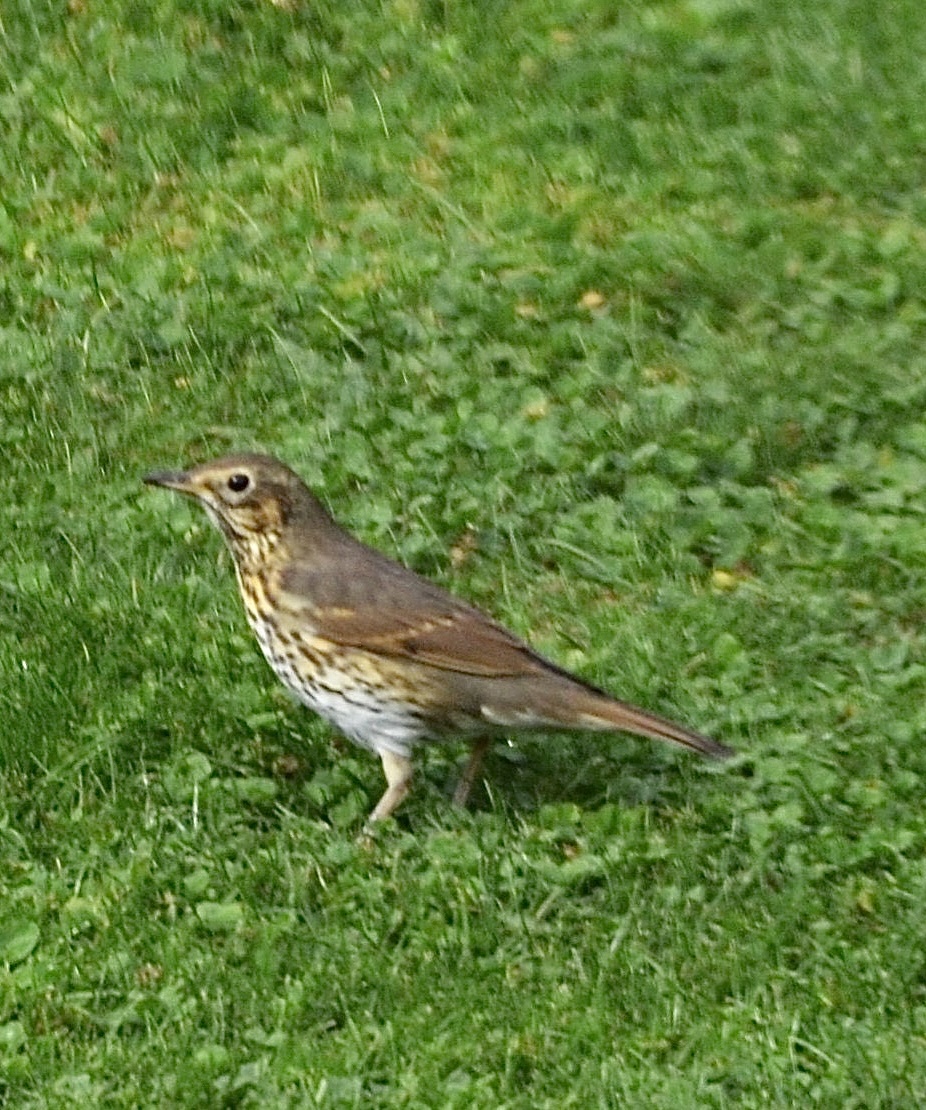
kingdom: Animalia
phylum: Chordata
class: Aves
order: Passeriformes
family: Turdidae
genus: Turdus
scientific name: Turdus philomelos
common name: Song thrush
